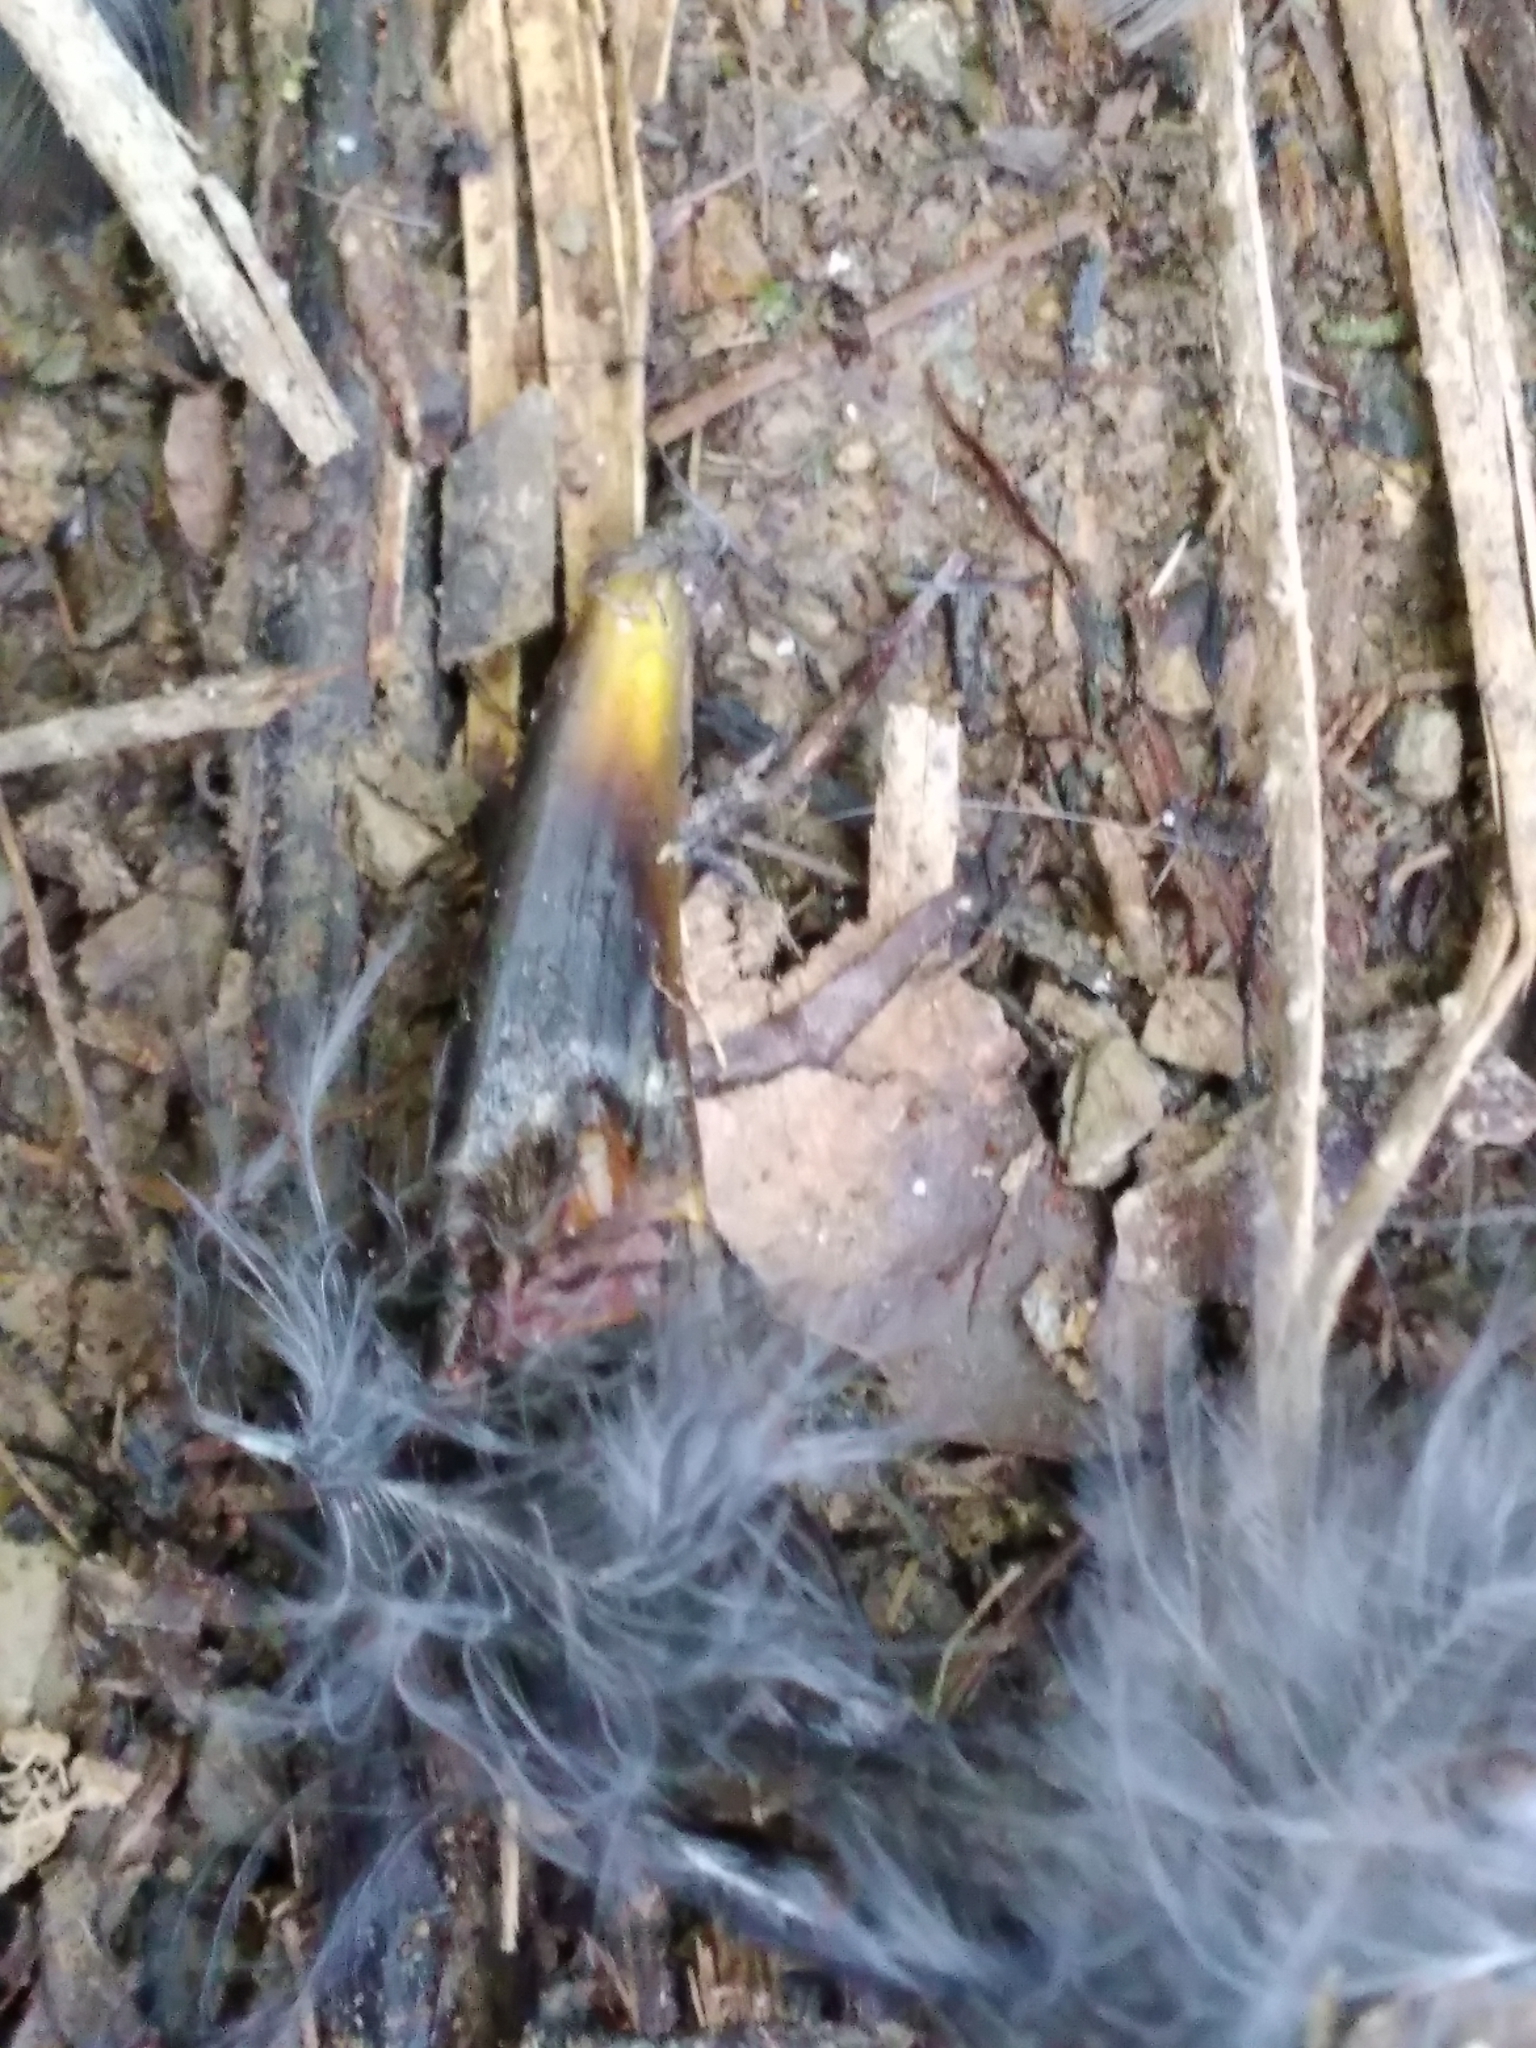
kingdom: Animalia
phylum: Chordata
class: Aves
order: Passeriformes
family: Turdidae
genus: Turdus
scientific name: Turdus merula
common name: Common blackbird
